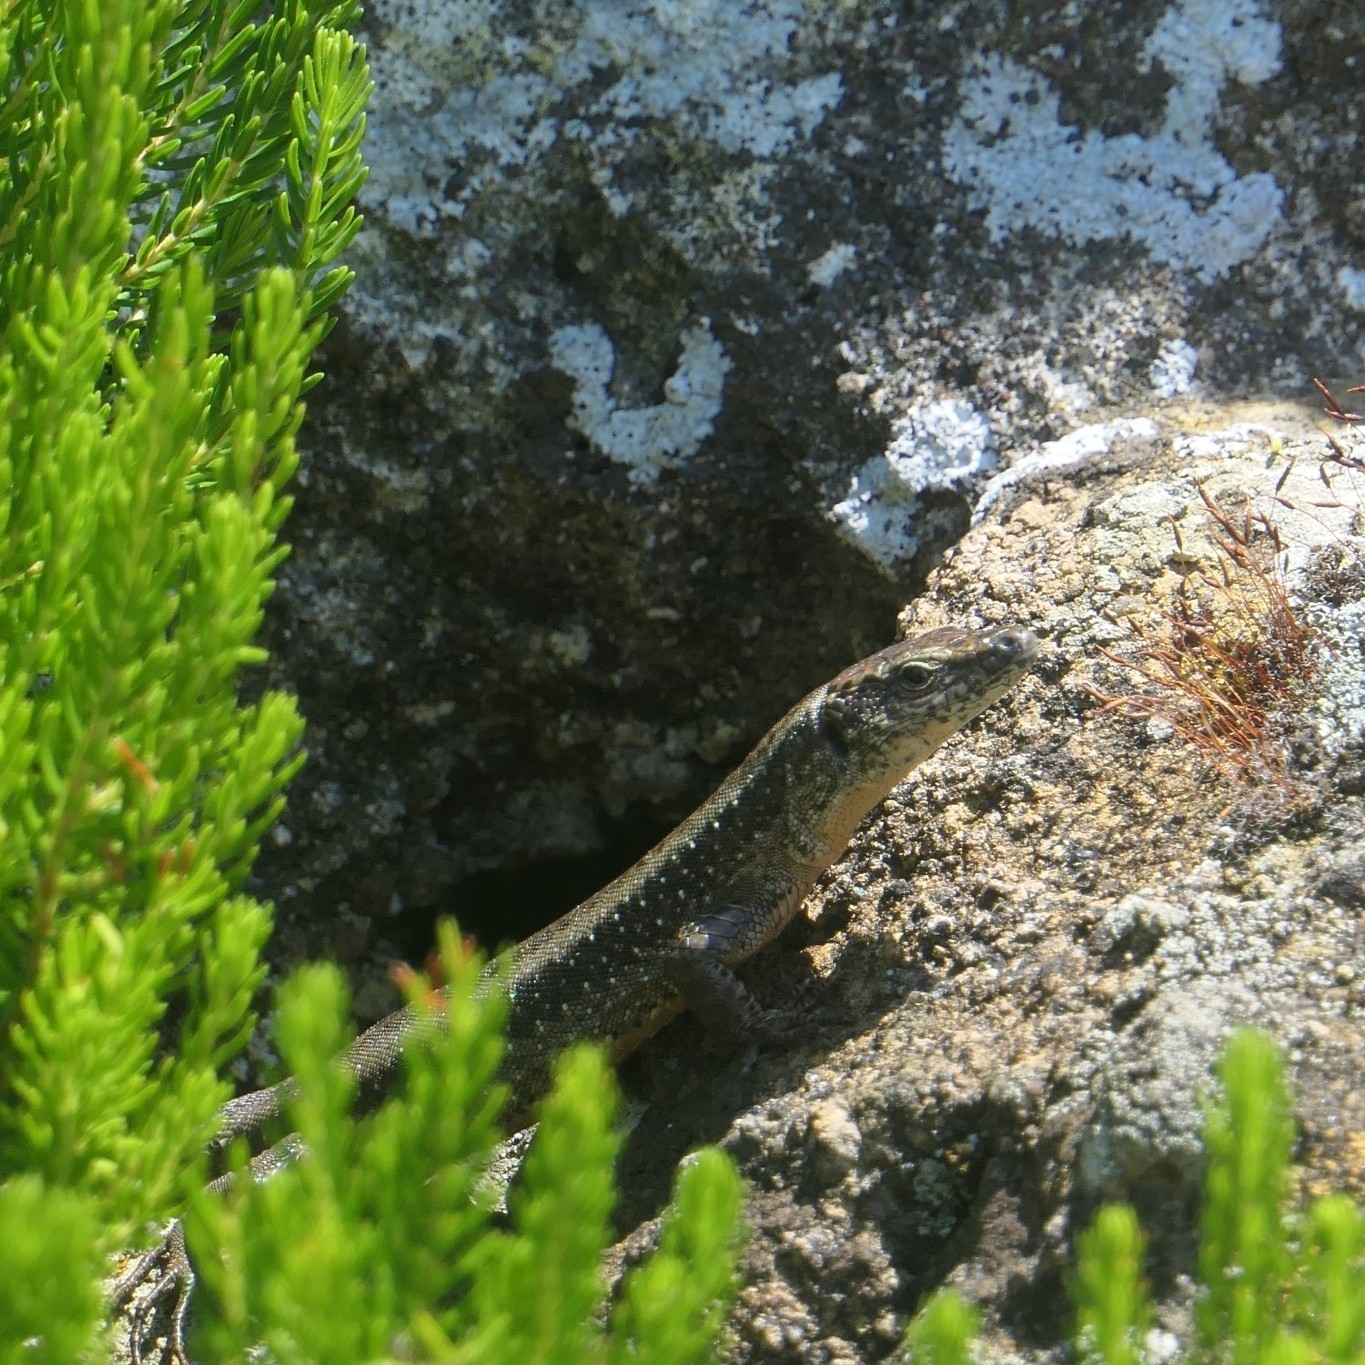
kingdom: Animalia
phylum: Chordata
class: Squamata
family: Lacertidae
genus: Teira
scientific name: Teira dugesii
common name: Madeira lizard
